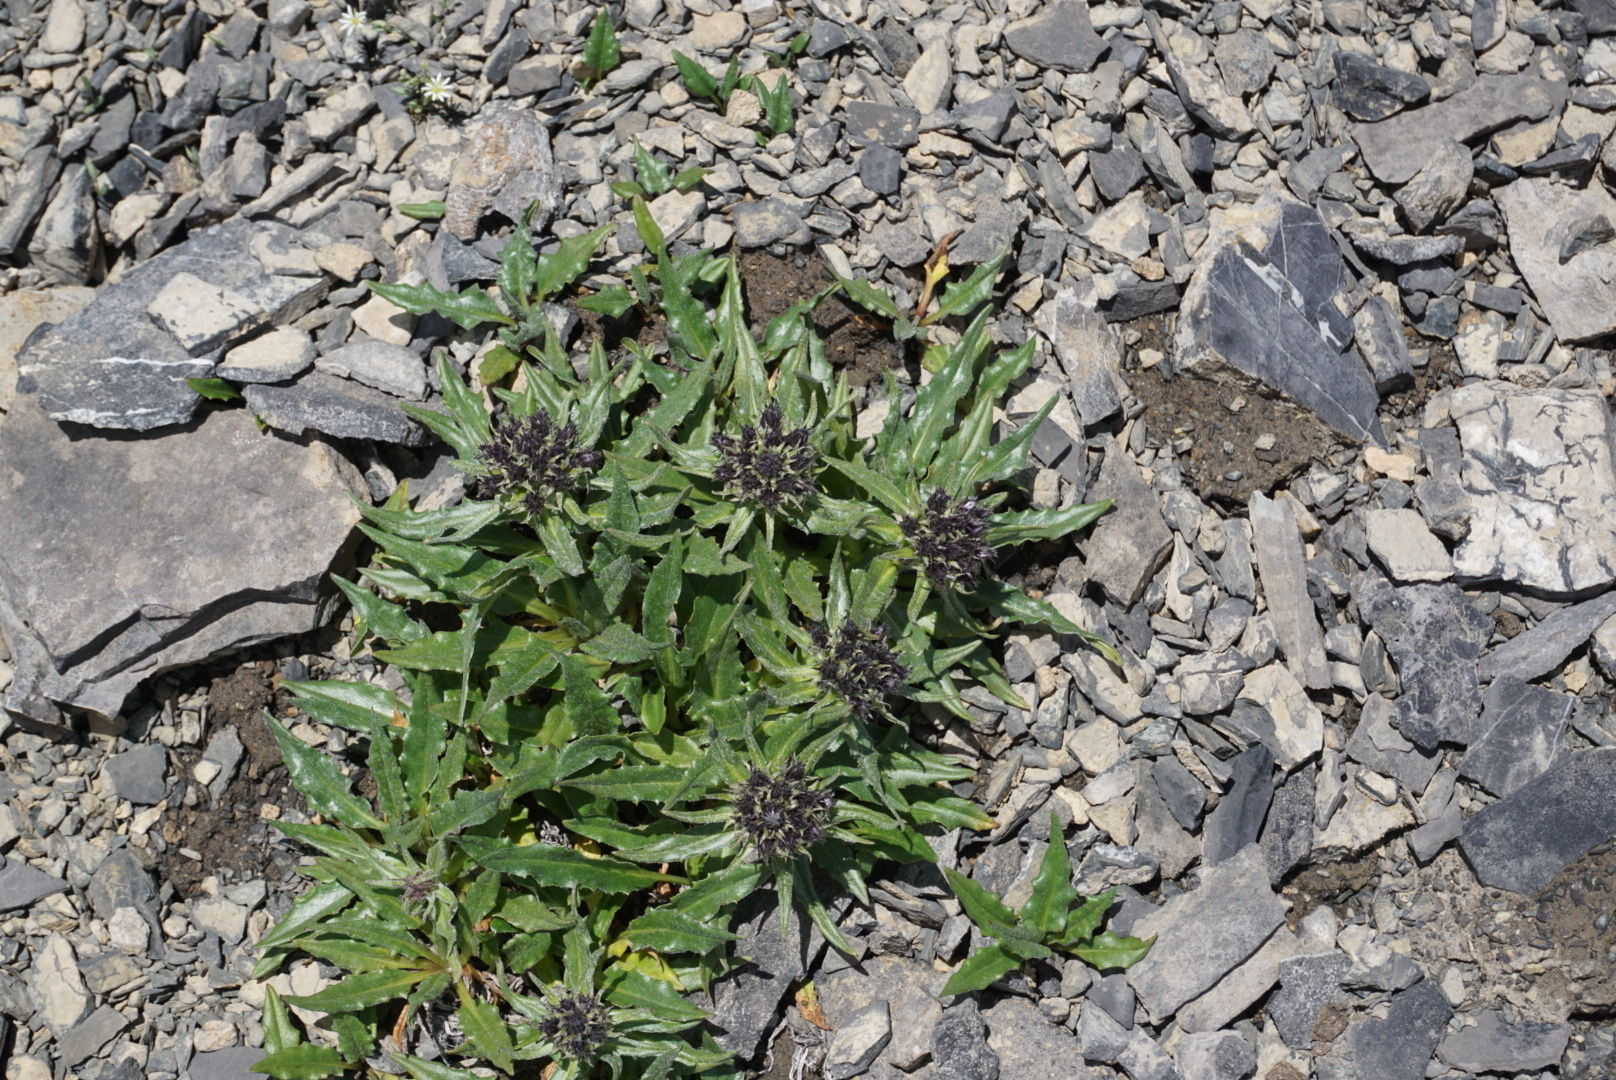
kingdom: Plantae
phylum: Tracheophyta
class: Magnoliopsida
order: Asterales
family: Asteraceae
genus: Saussurea
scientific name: Saussurea nuda
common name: Chaffless saw-wort
